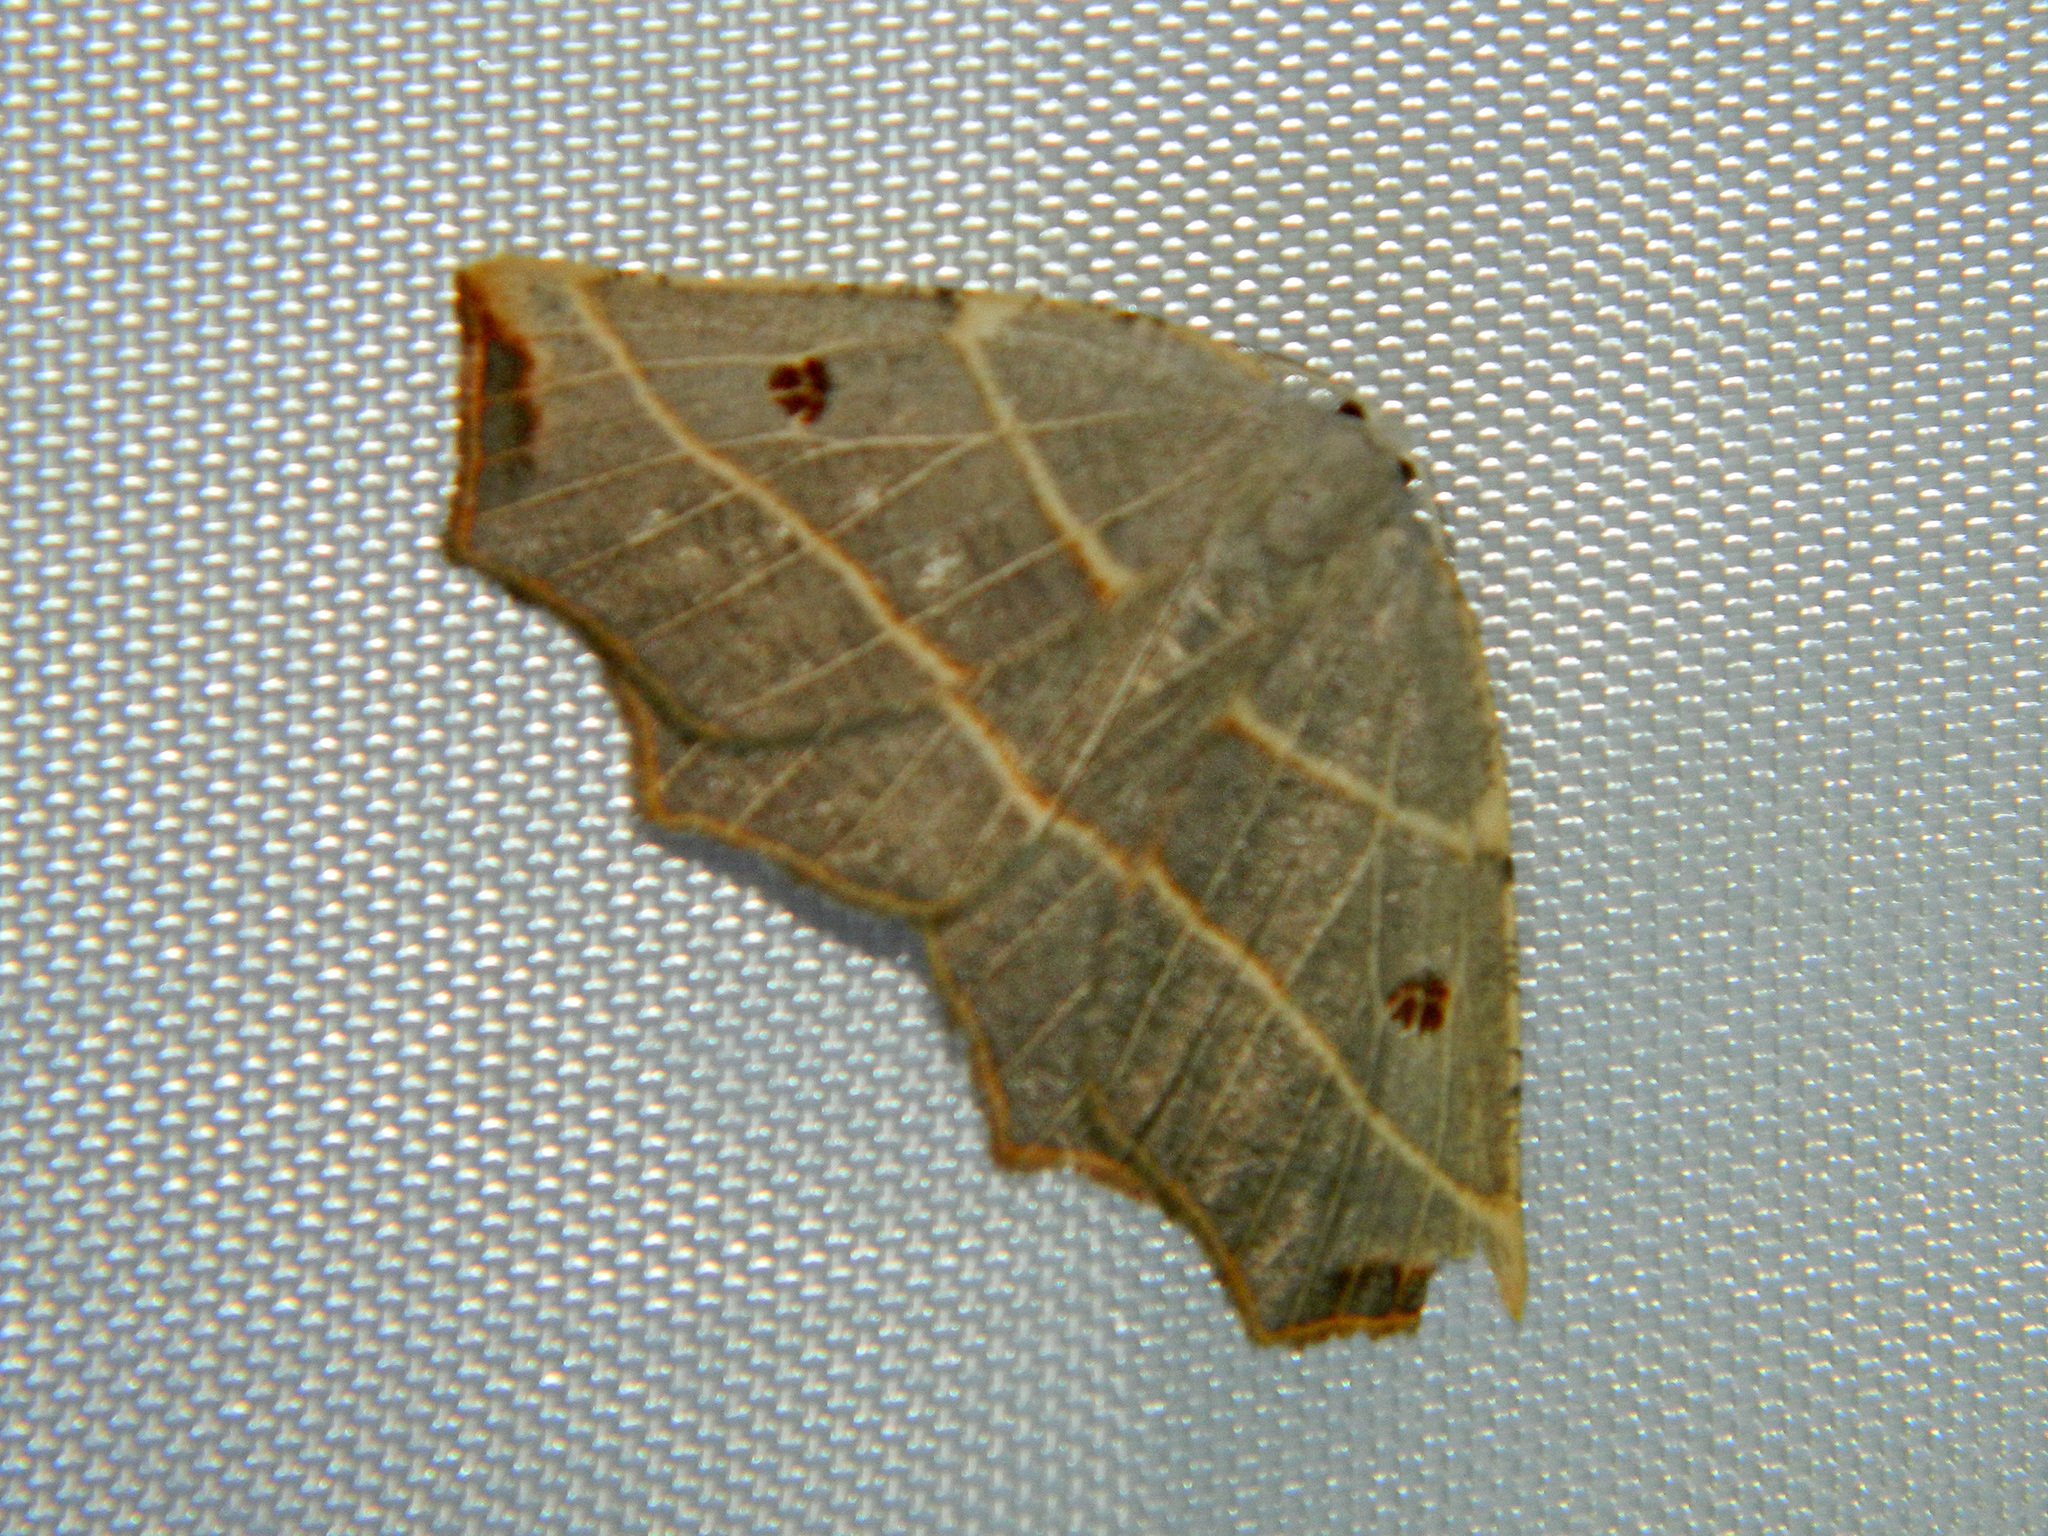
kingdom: Animalia
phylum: Arthropoda
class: Insecta
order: Lepidoptera
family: Geometridae
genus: Metanema
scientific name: Metanema inatomaria
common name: Pale metanema
